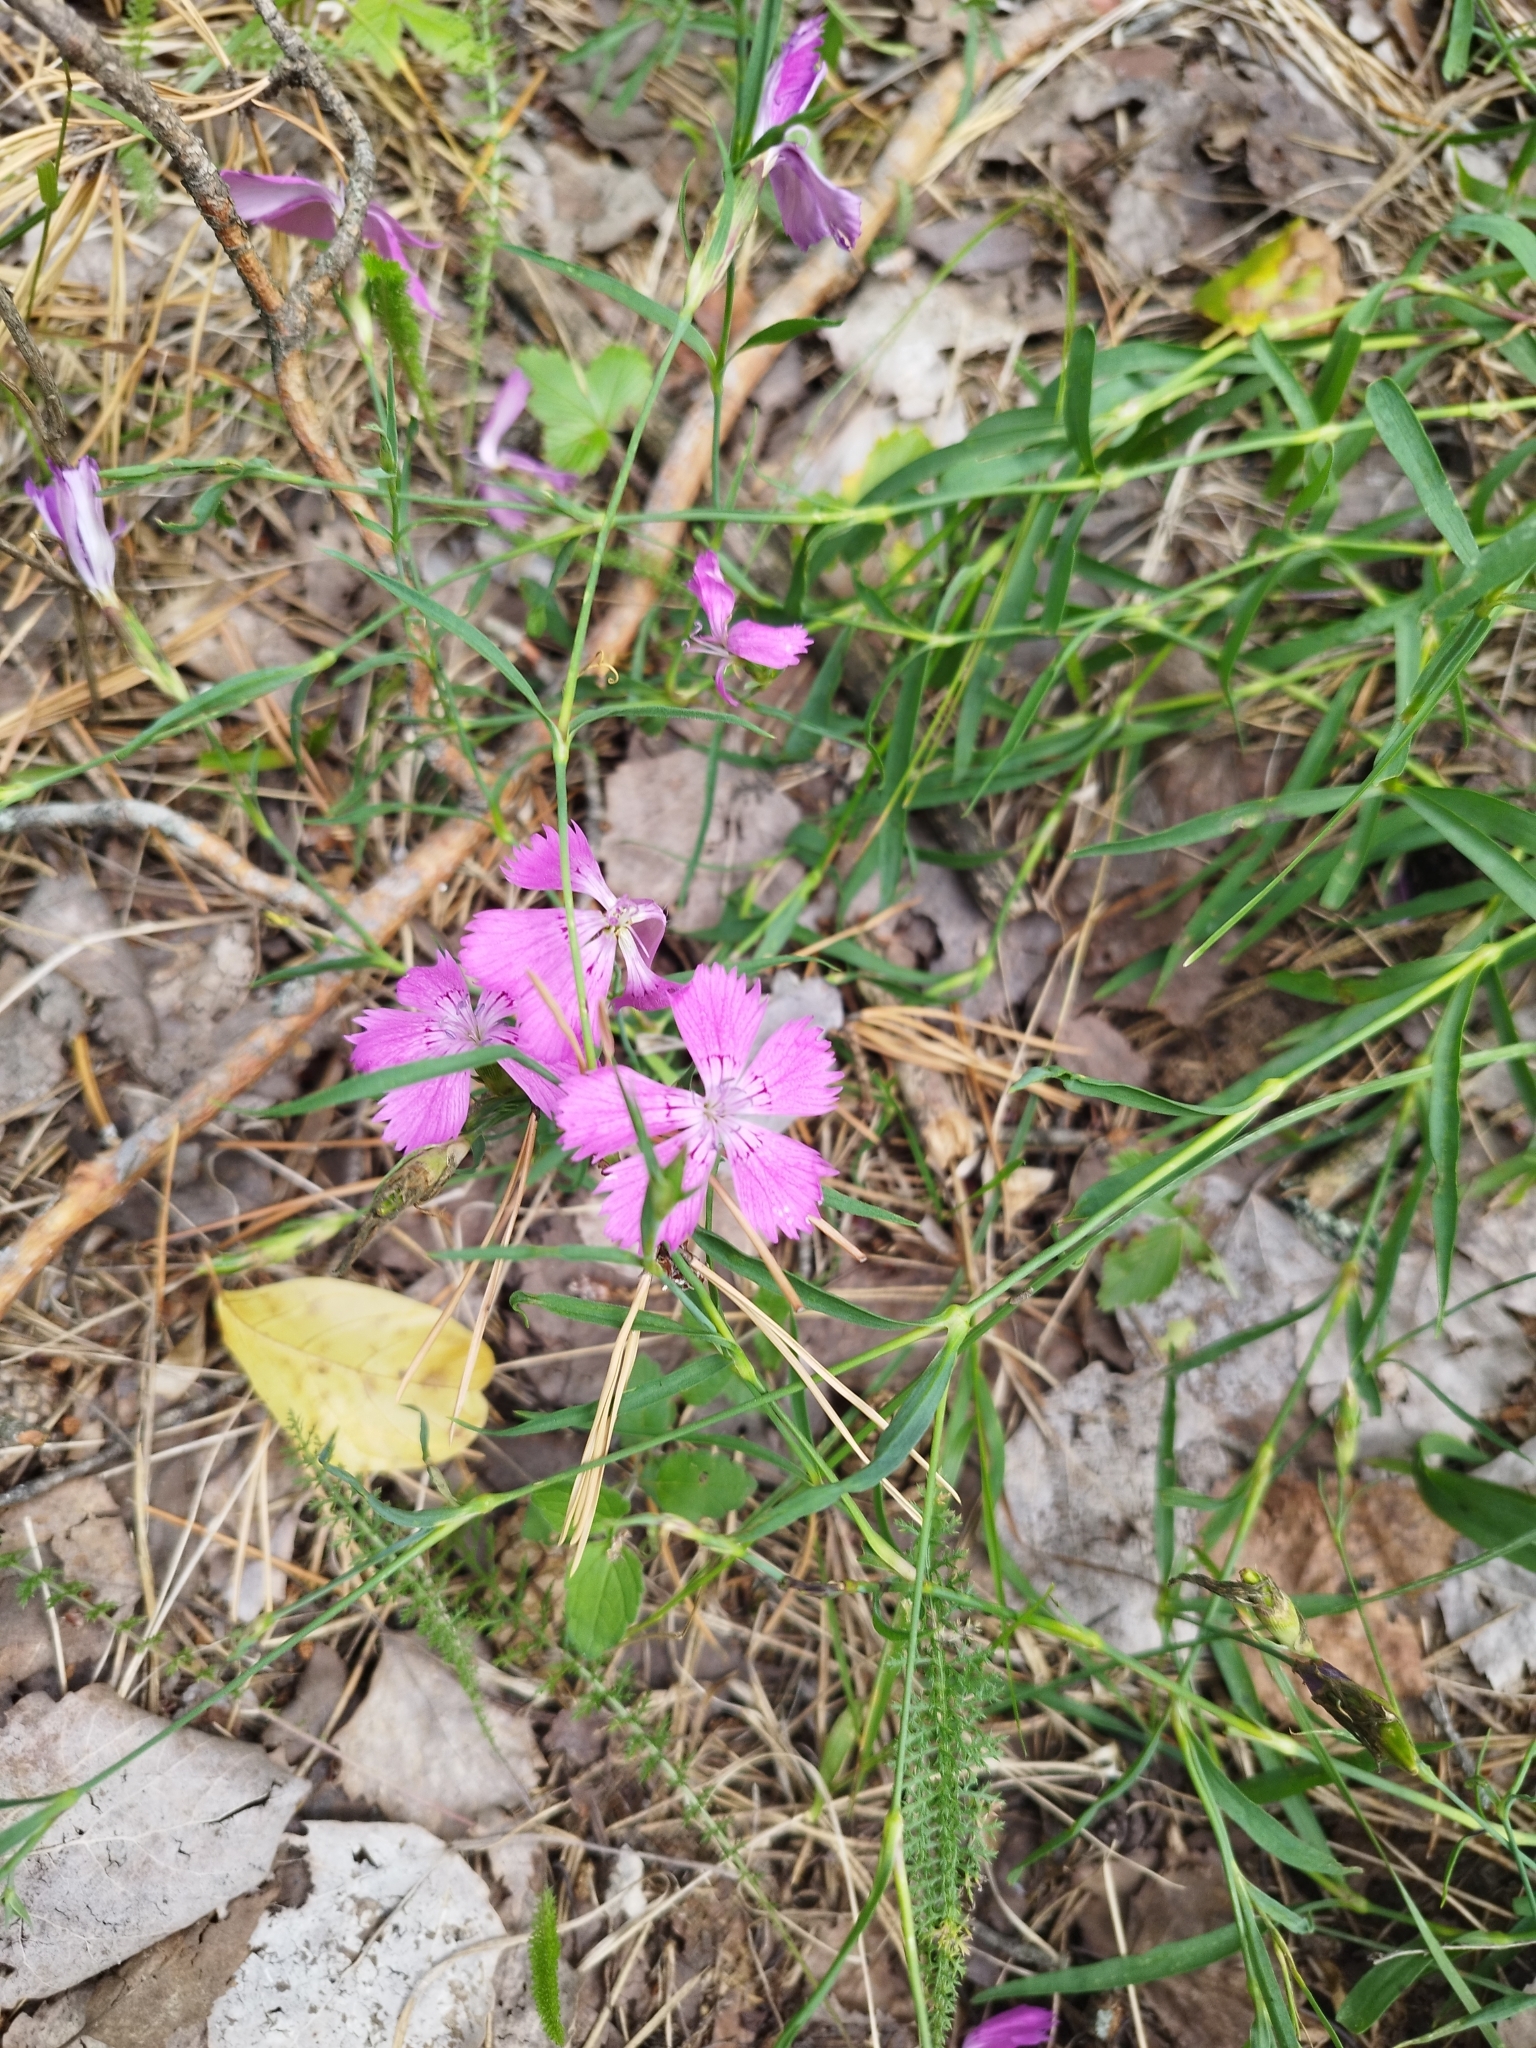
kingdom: Plantae
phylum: Tracheophyta
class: Magnoliopsida
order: Caryophyllales
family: Caryophyllaceae
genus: Dianthus
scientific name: Dianthus chinensis
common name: Rainbow pink
